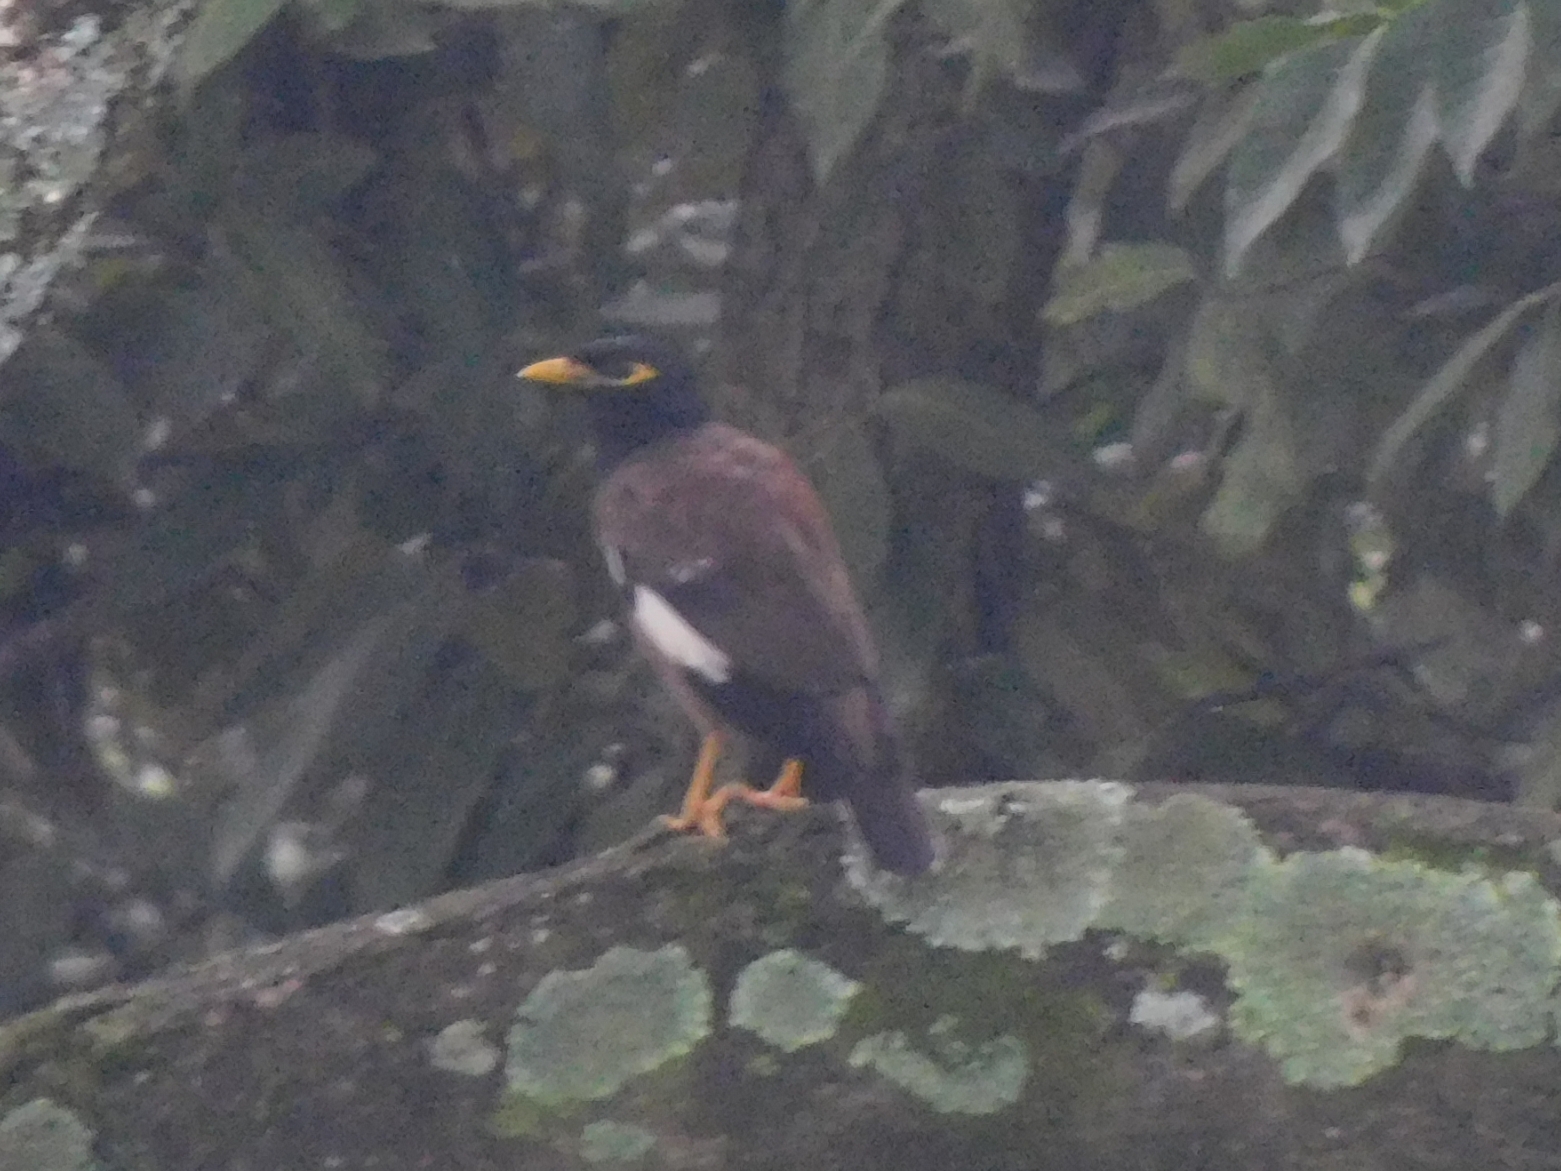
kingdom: Animalia
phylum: Chordata
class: Aves
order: Passeriformes
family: Sturnidae
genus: Acridotheres
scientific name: Acridotheres tristis
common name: Common myna
